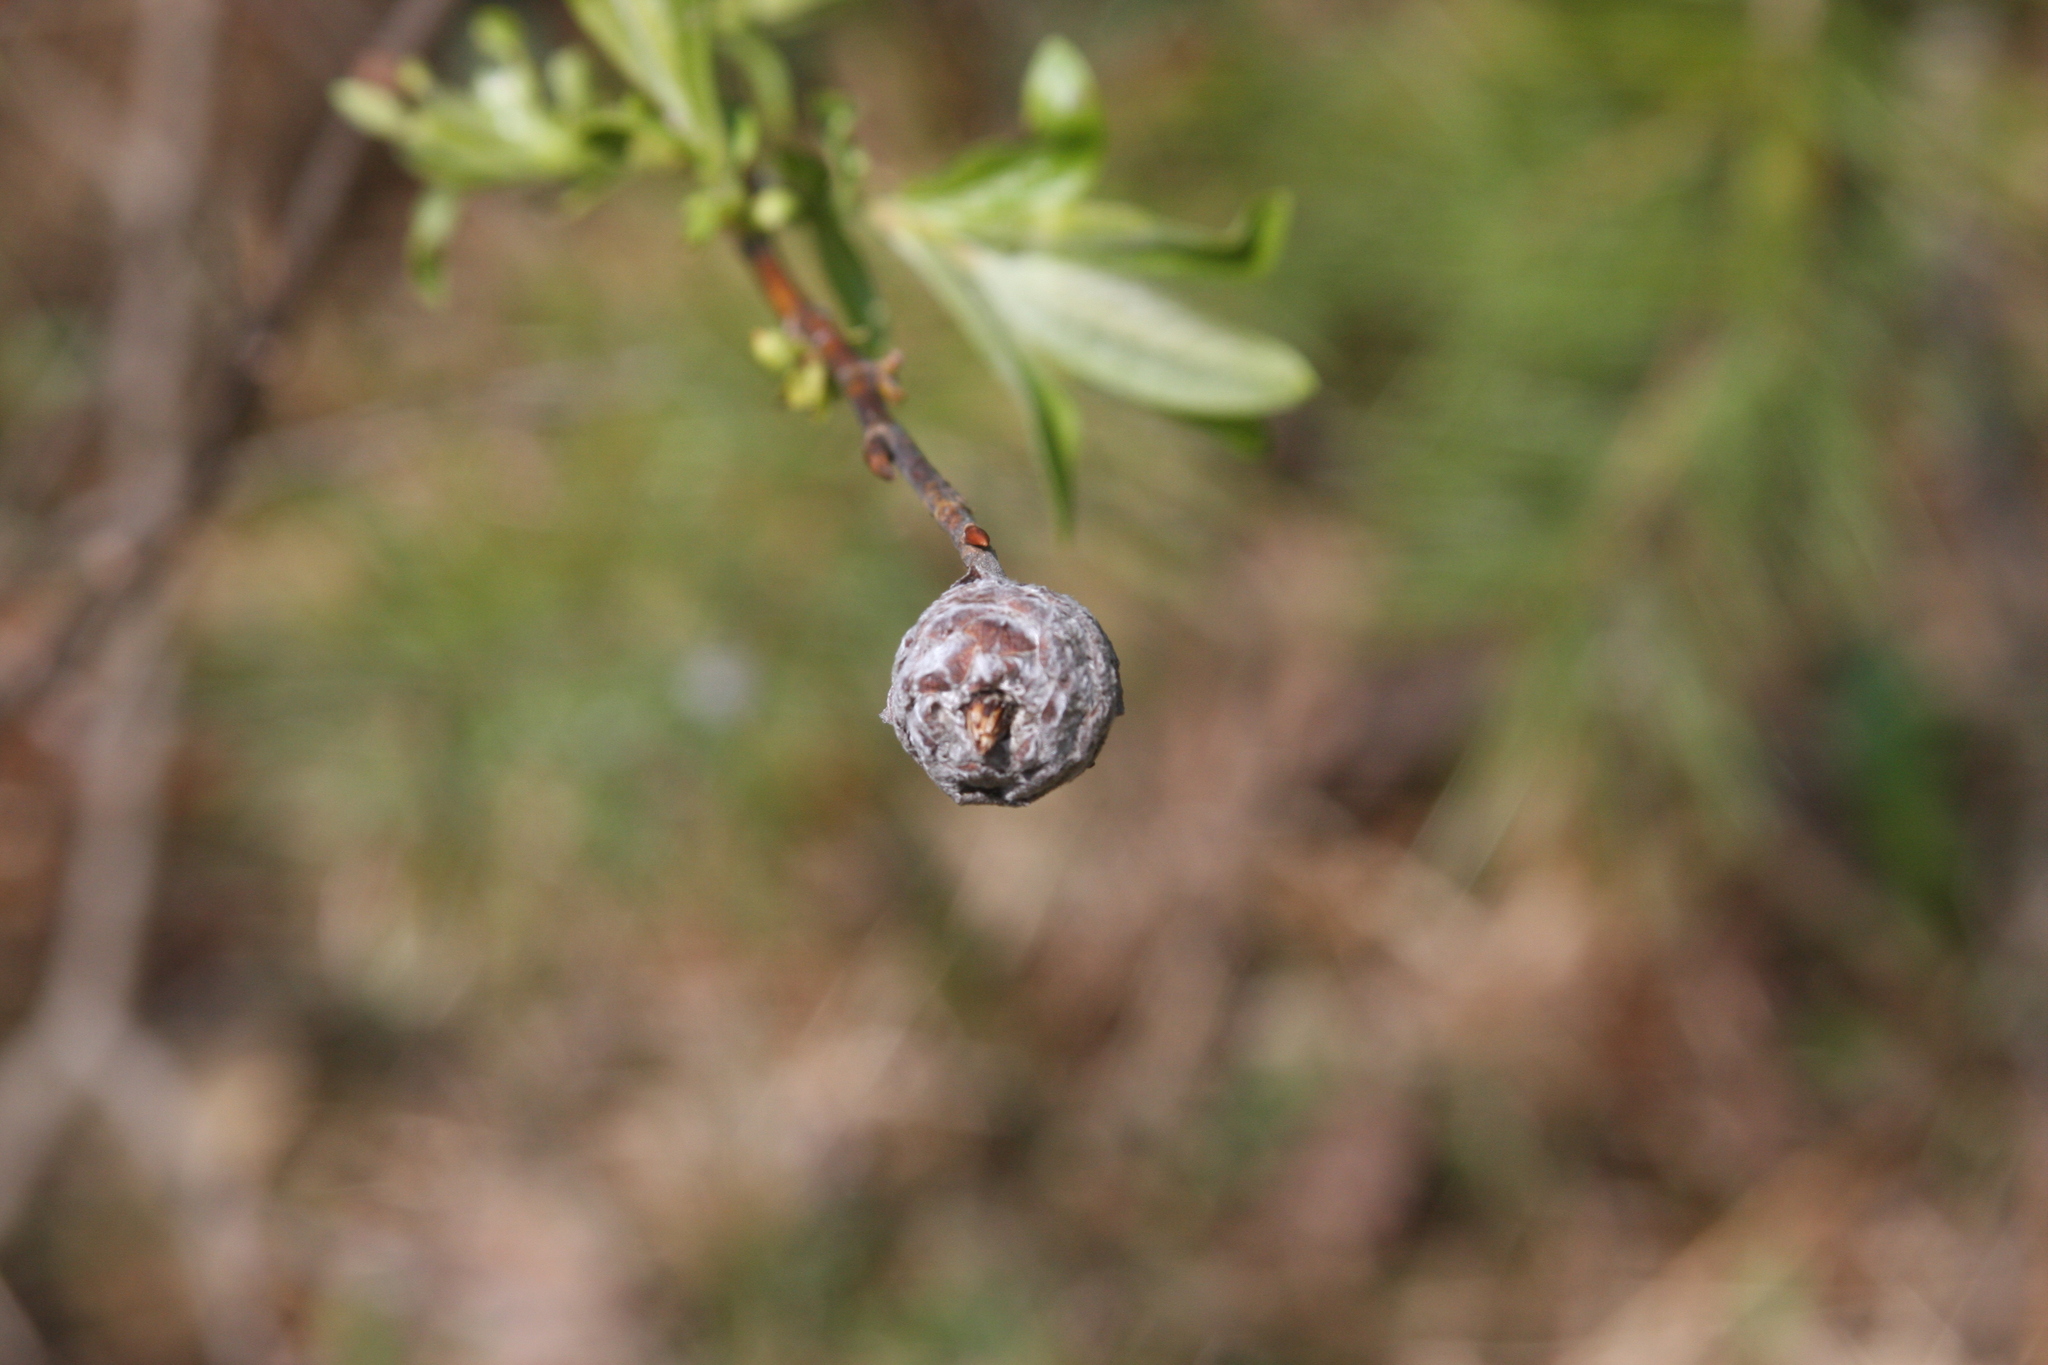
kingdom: Animalia
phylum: Arthropoda
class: Insecta
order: Diptera
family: Cecidomyiidae
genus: Rabdophaga
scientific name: Rabdophaga strobiloides
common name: Willow pinecone gall midge
